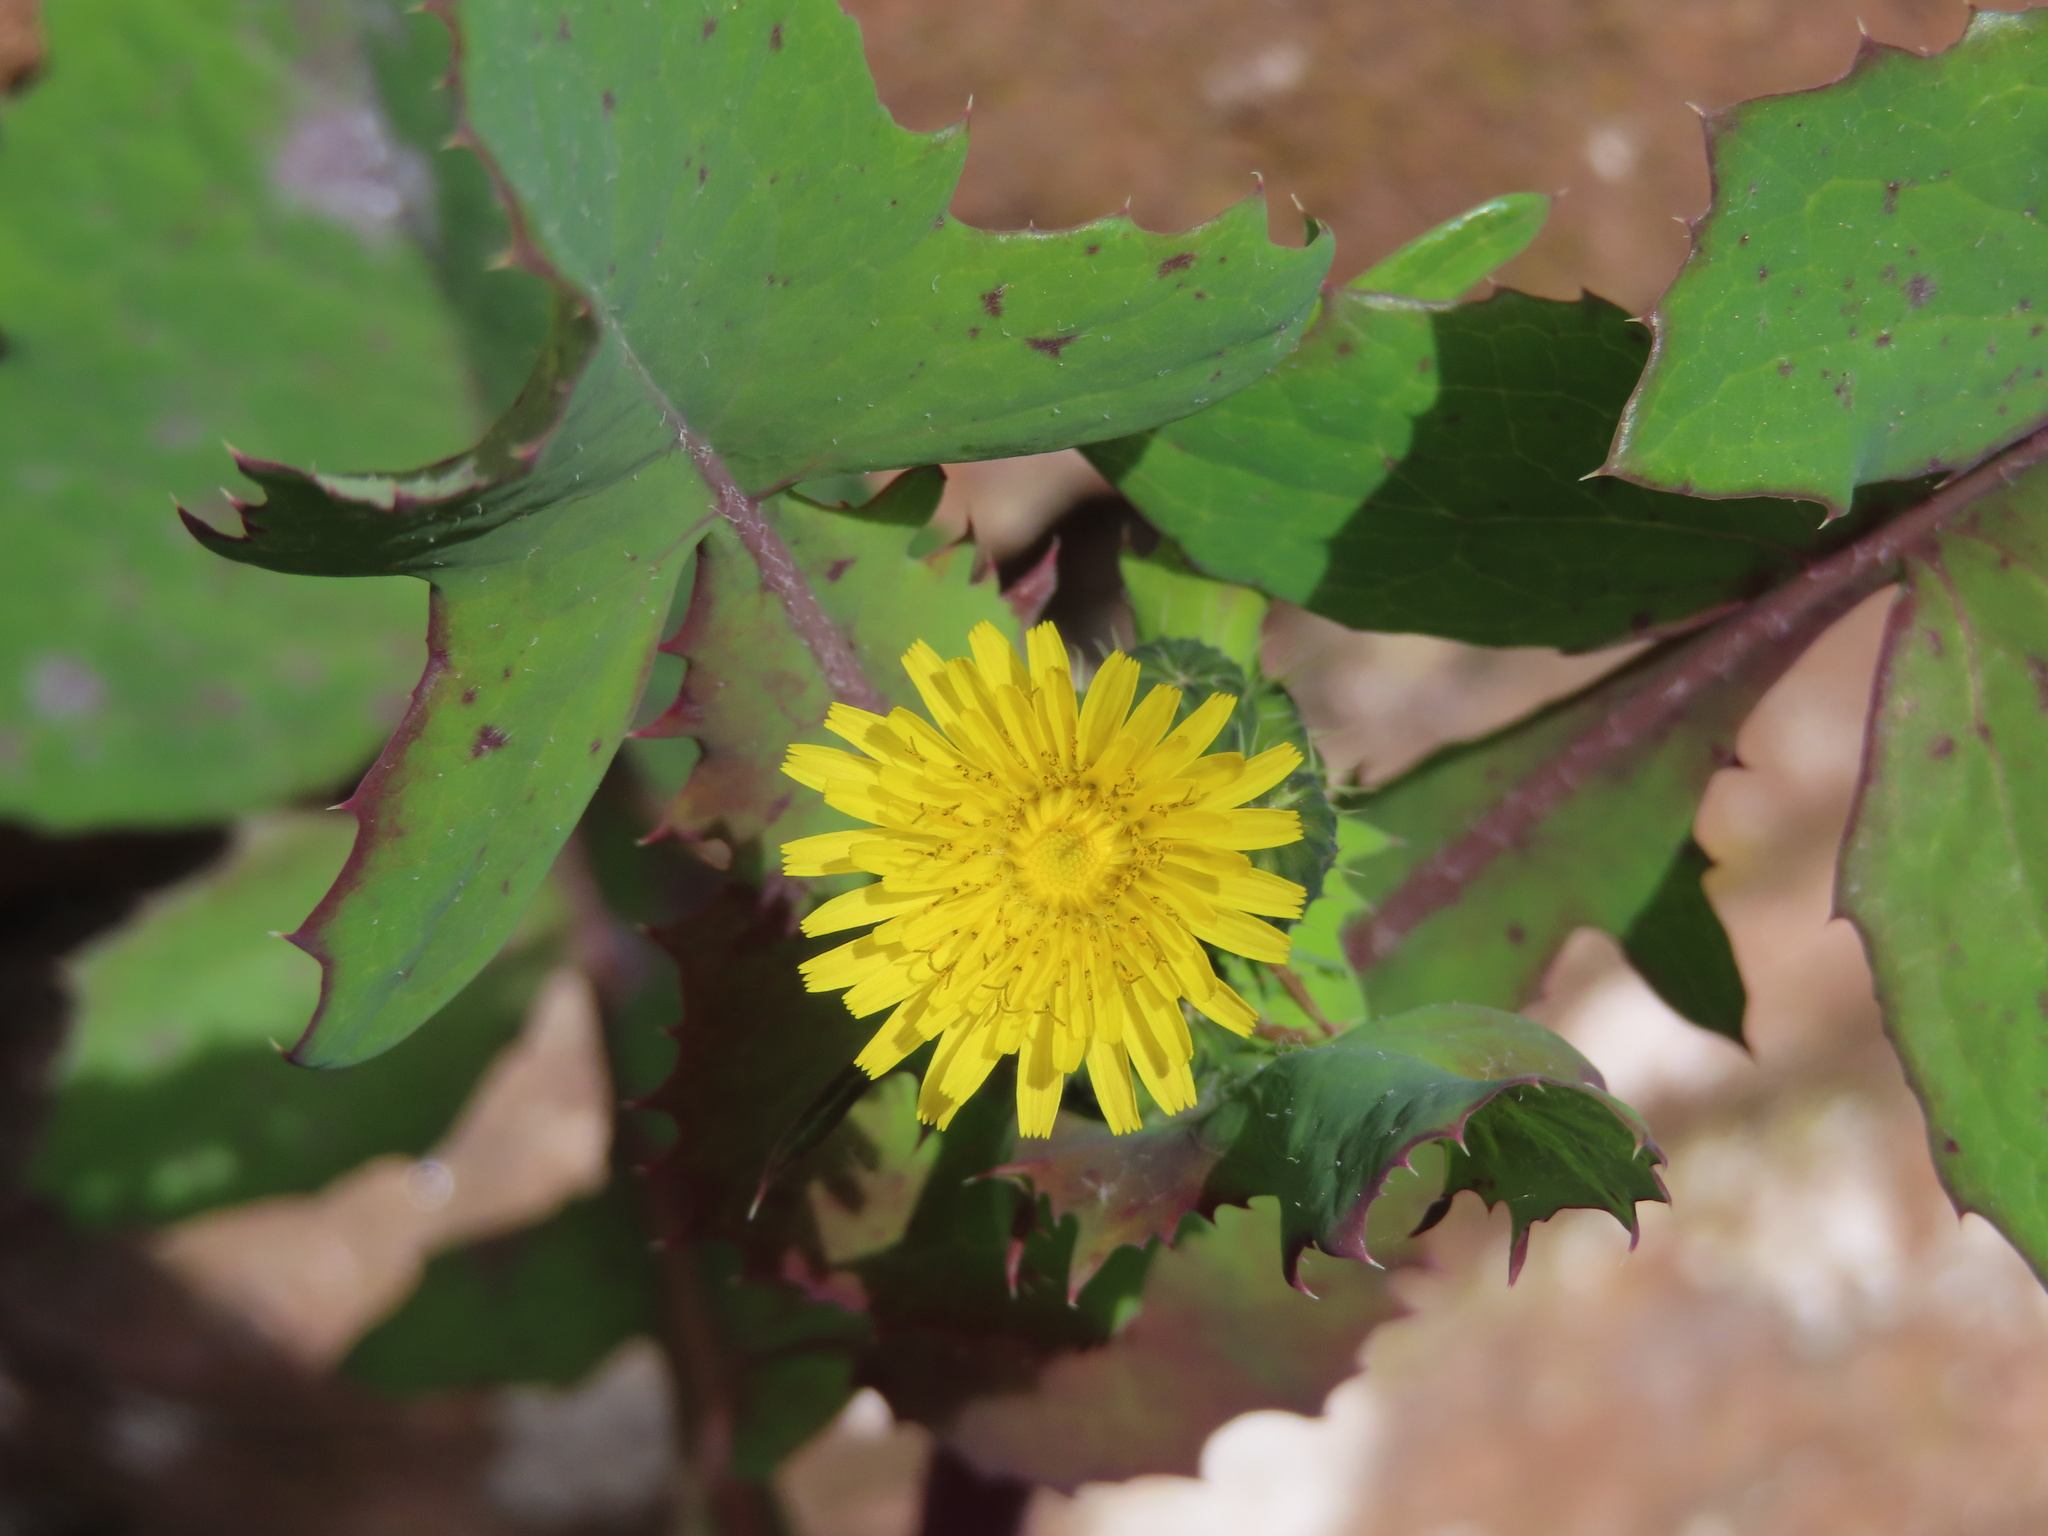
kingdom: Plantae
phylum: Tracheophyta
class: Magnoliopsida
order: Asterales
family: Asteraceae
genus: Sonchus
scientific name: Sonchus oleraceus
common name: Common sowthistle
